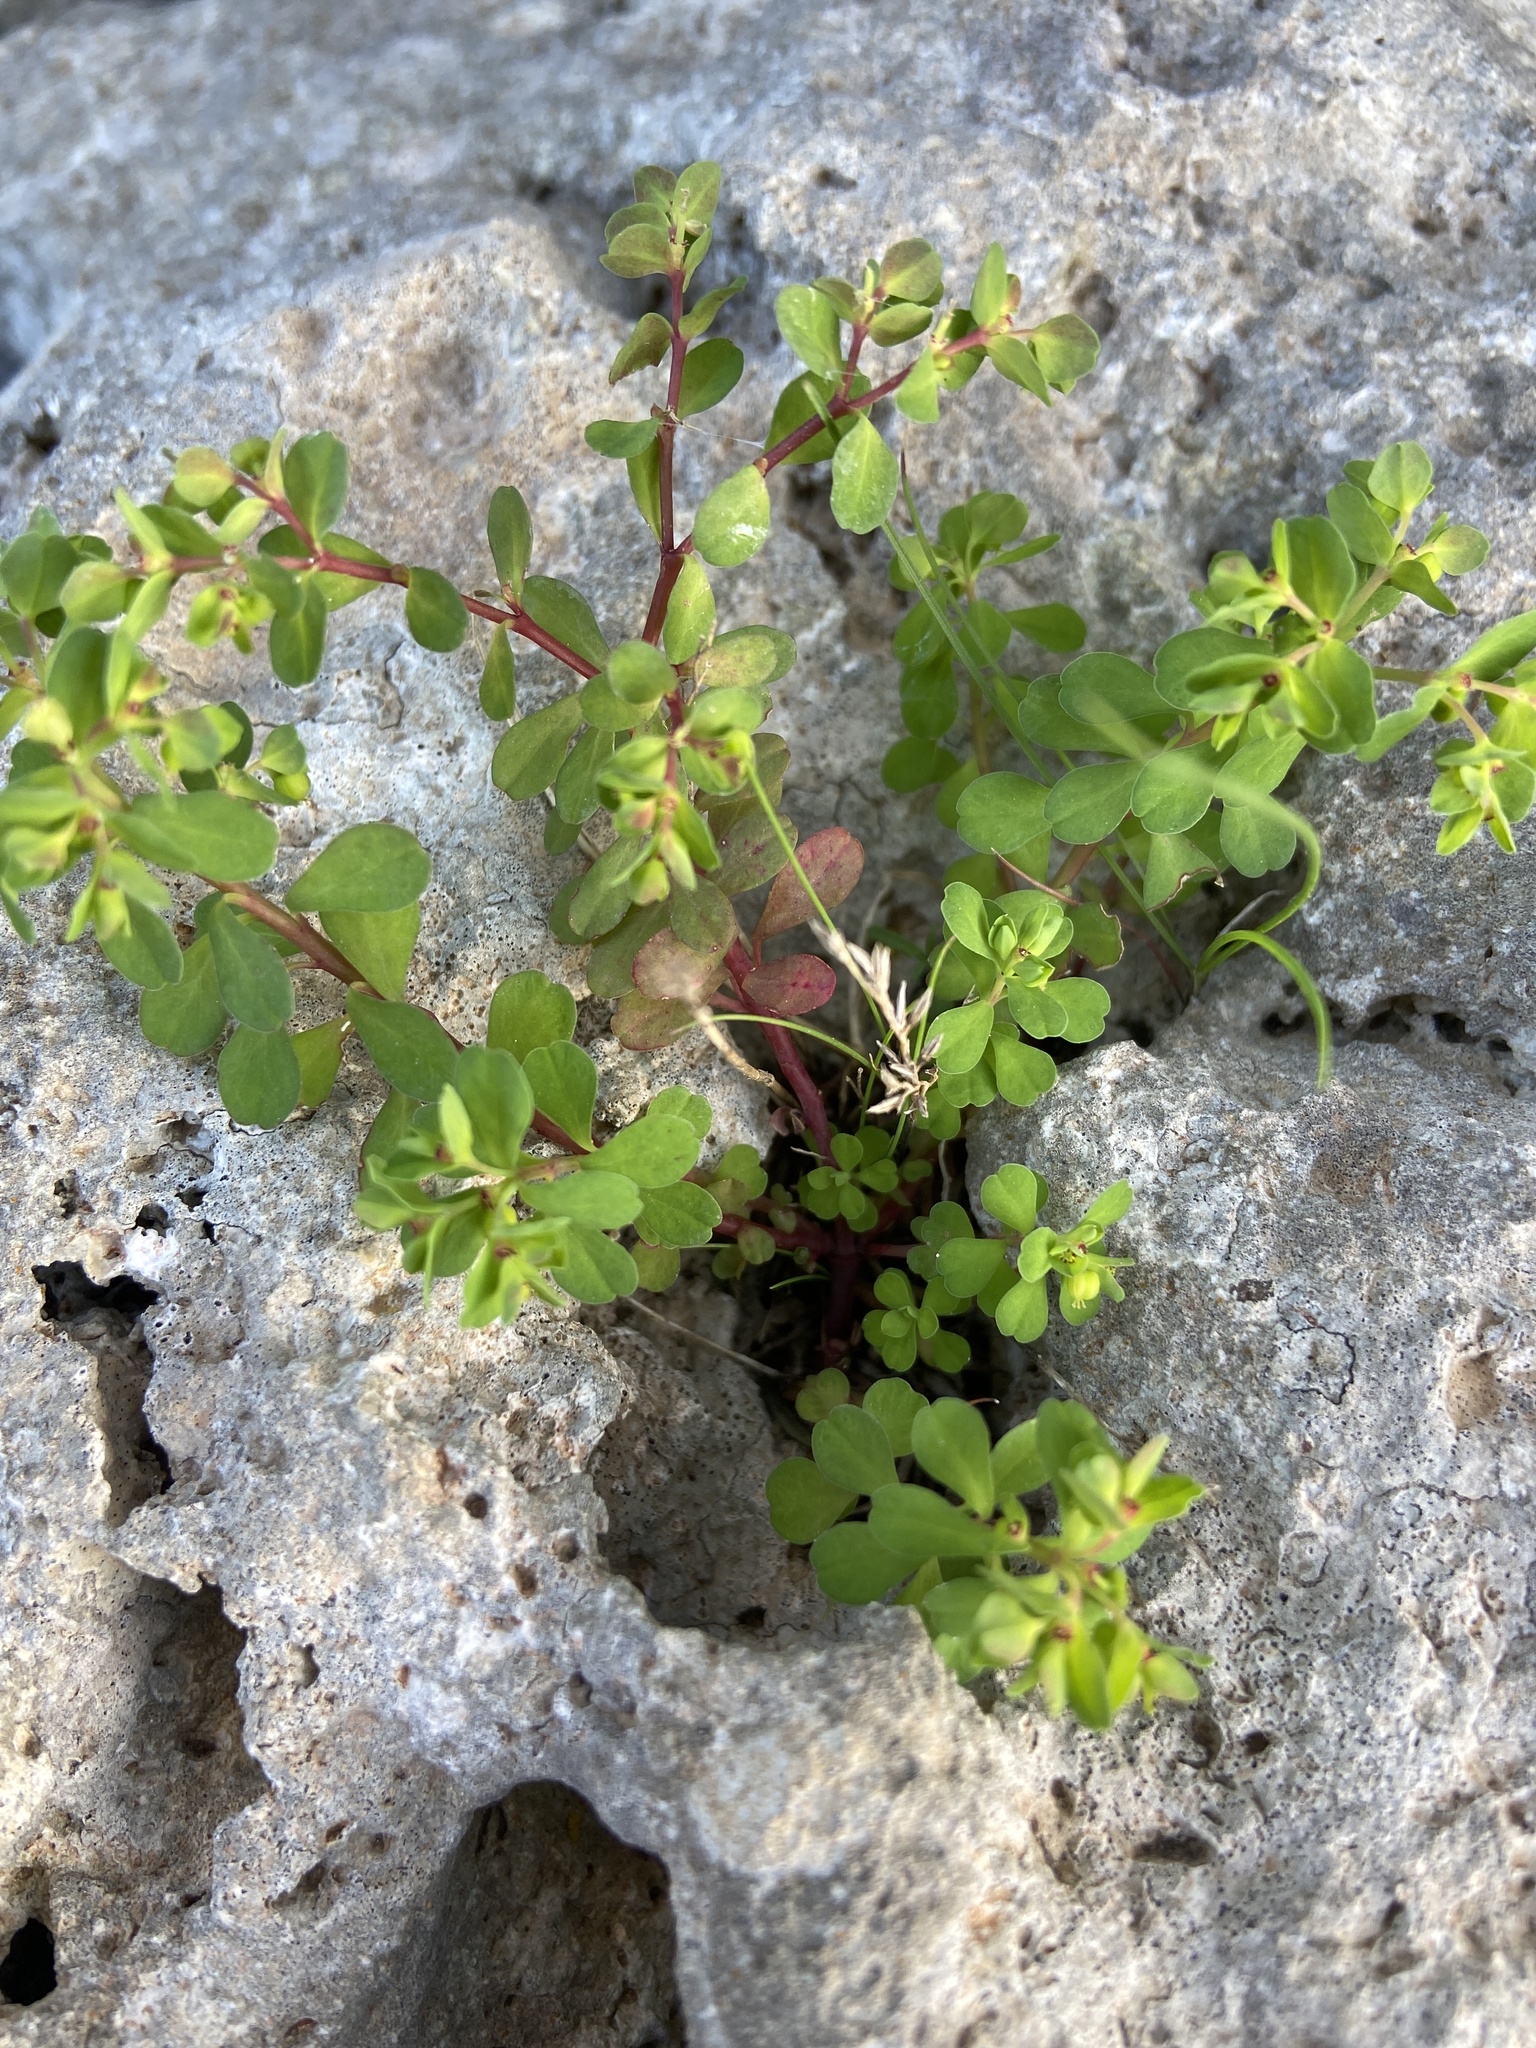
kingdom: Plantae
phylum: Tracheophyta
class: Magnoliopsida
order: Malpighiales
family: Euphorbiaceae
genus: Euphorbia
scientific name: Euphorbia peplus
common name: Petty spurge
